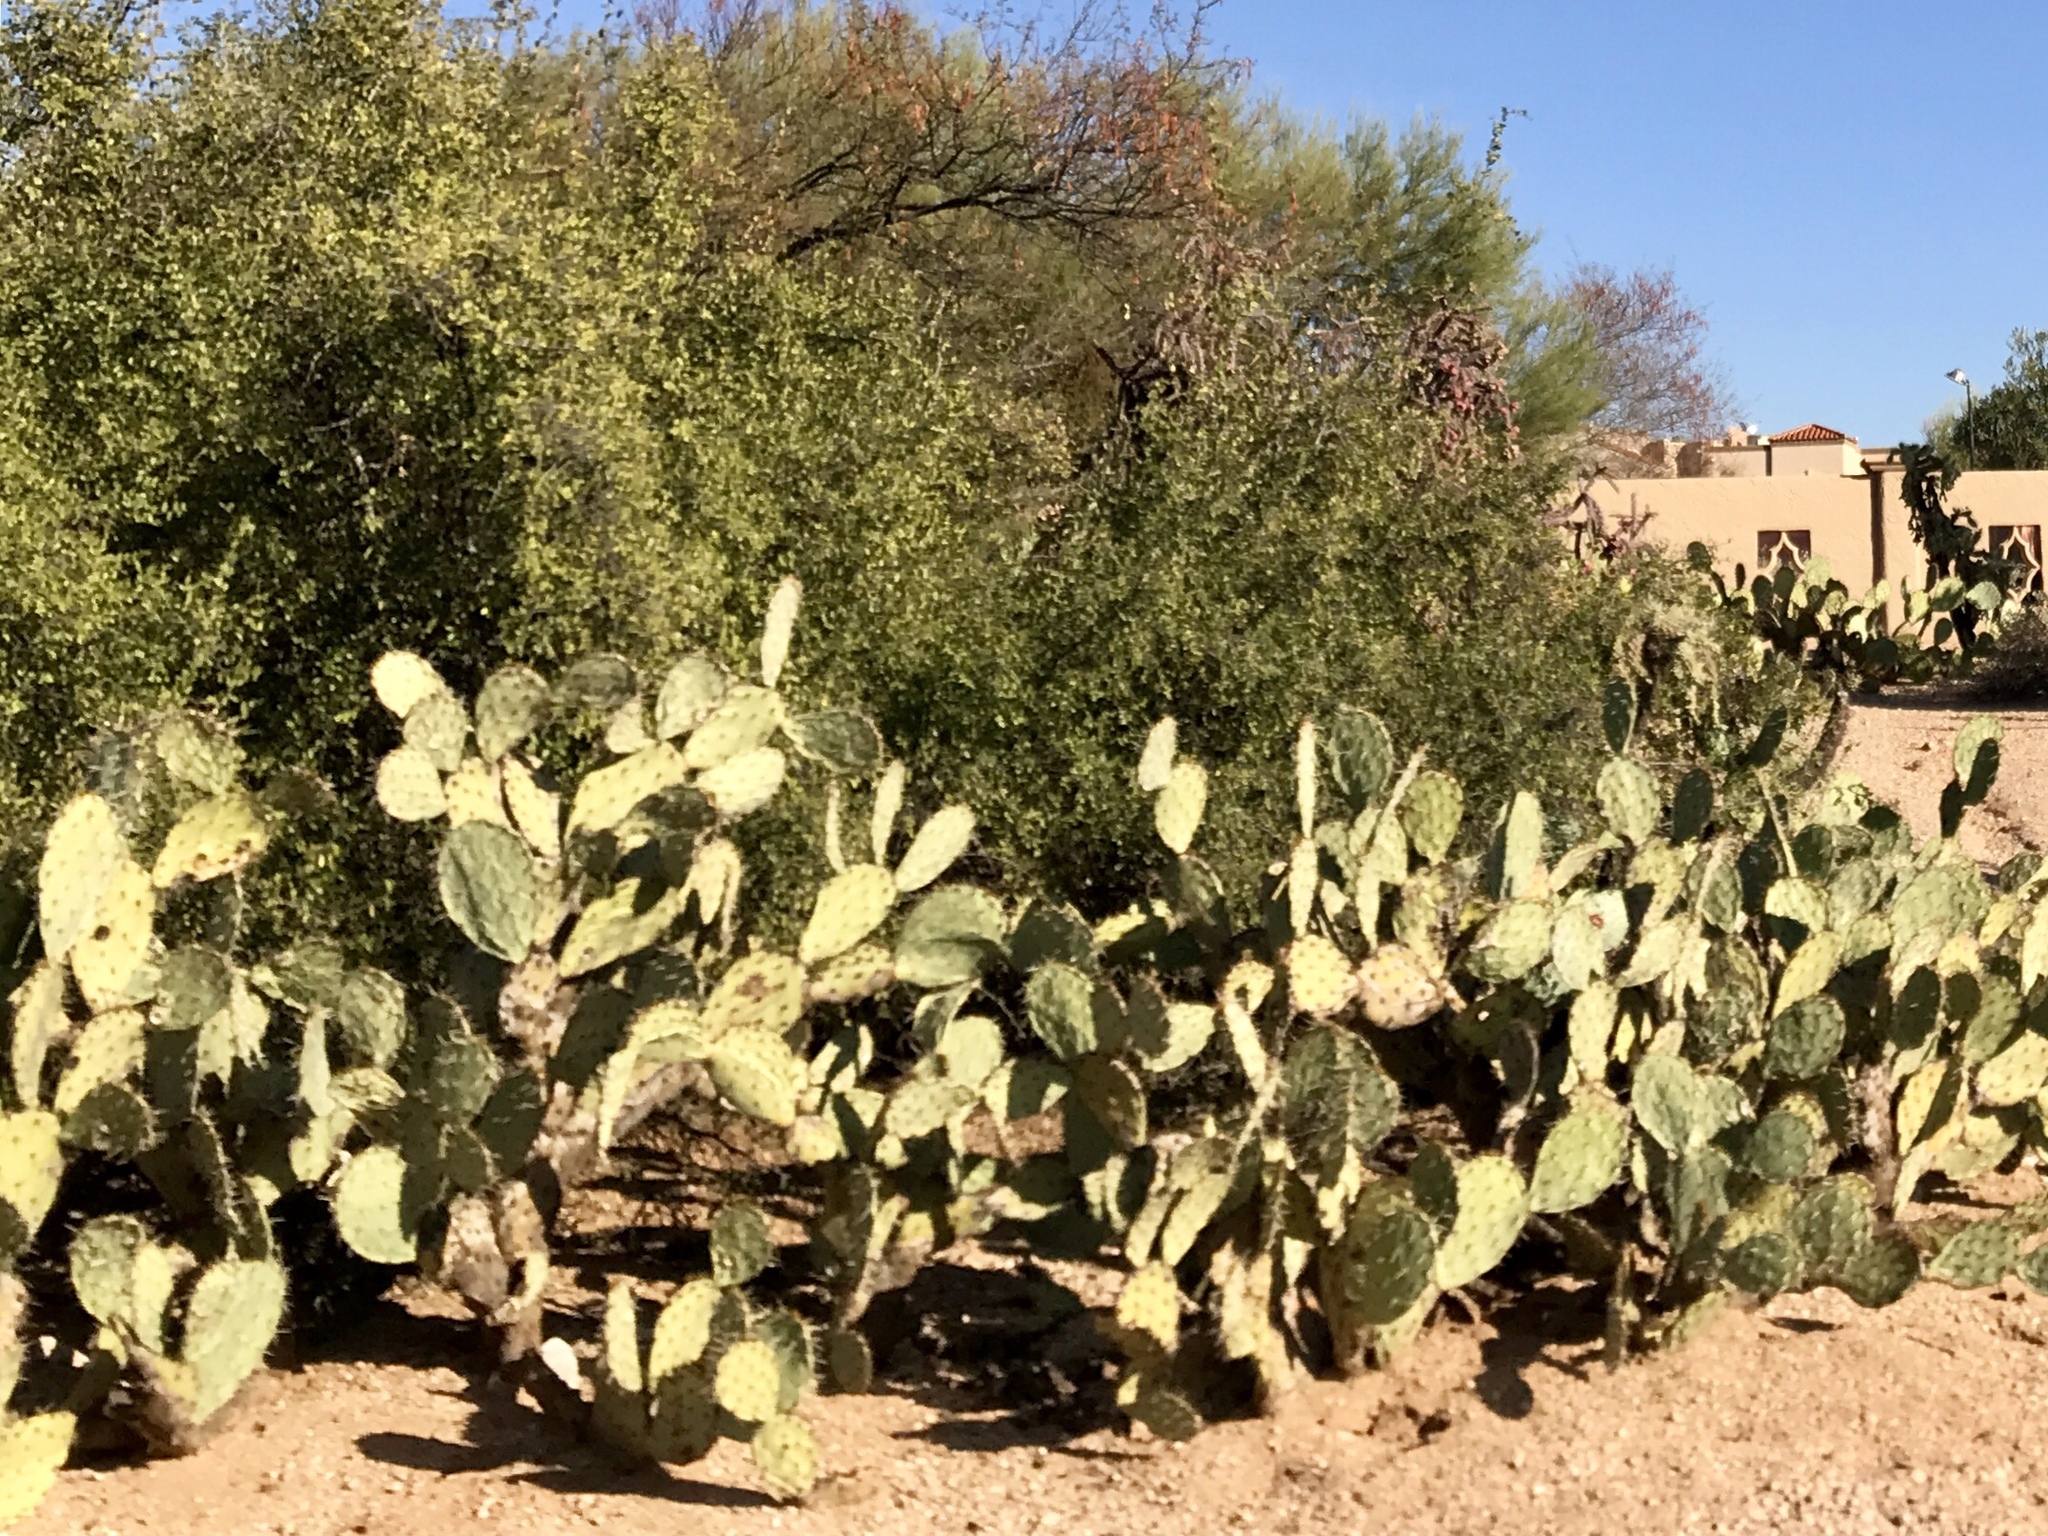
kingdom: Plantae
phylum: Tracheophyta
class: Magnoliopsida
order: Caryophyllales
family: Cactaceae
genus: Opuntia
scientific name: Opuntia engelmannii
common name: Cactus-apple
